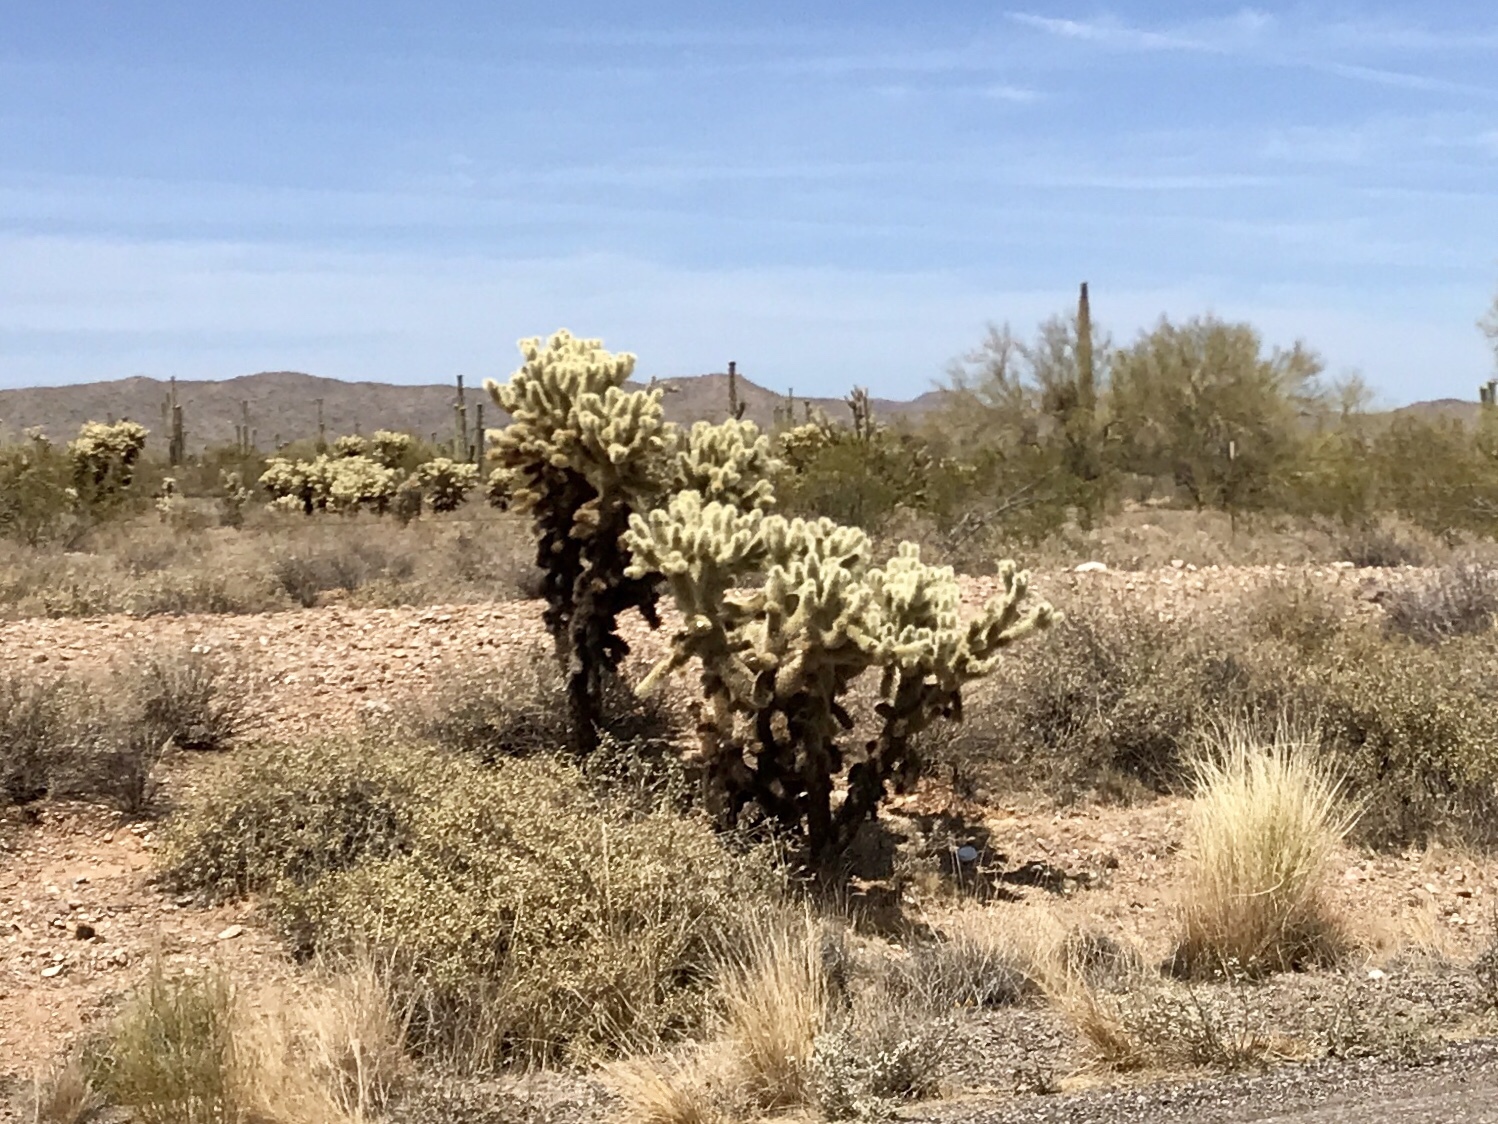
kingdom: Plantae
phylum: Tracheophyta
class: Magnoliopsida
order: Caryophyllales
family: Cactaceae
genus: Cylindropuntia
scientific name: Cylindropuntia fosbergii
